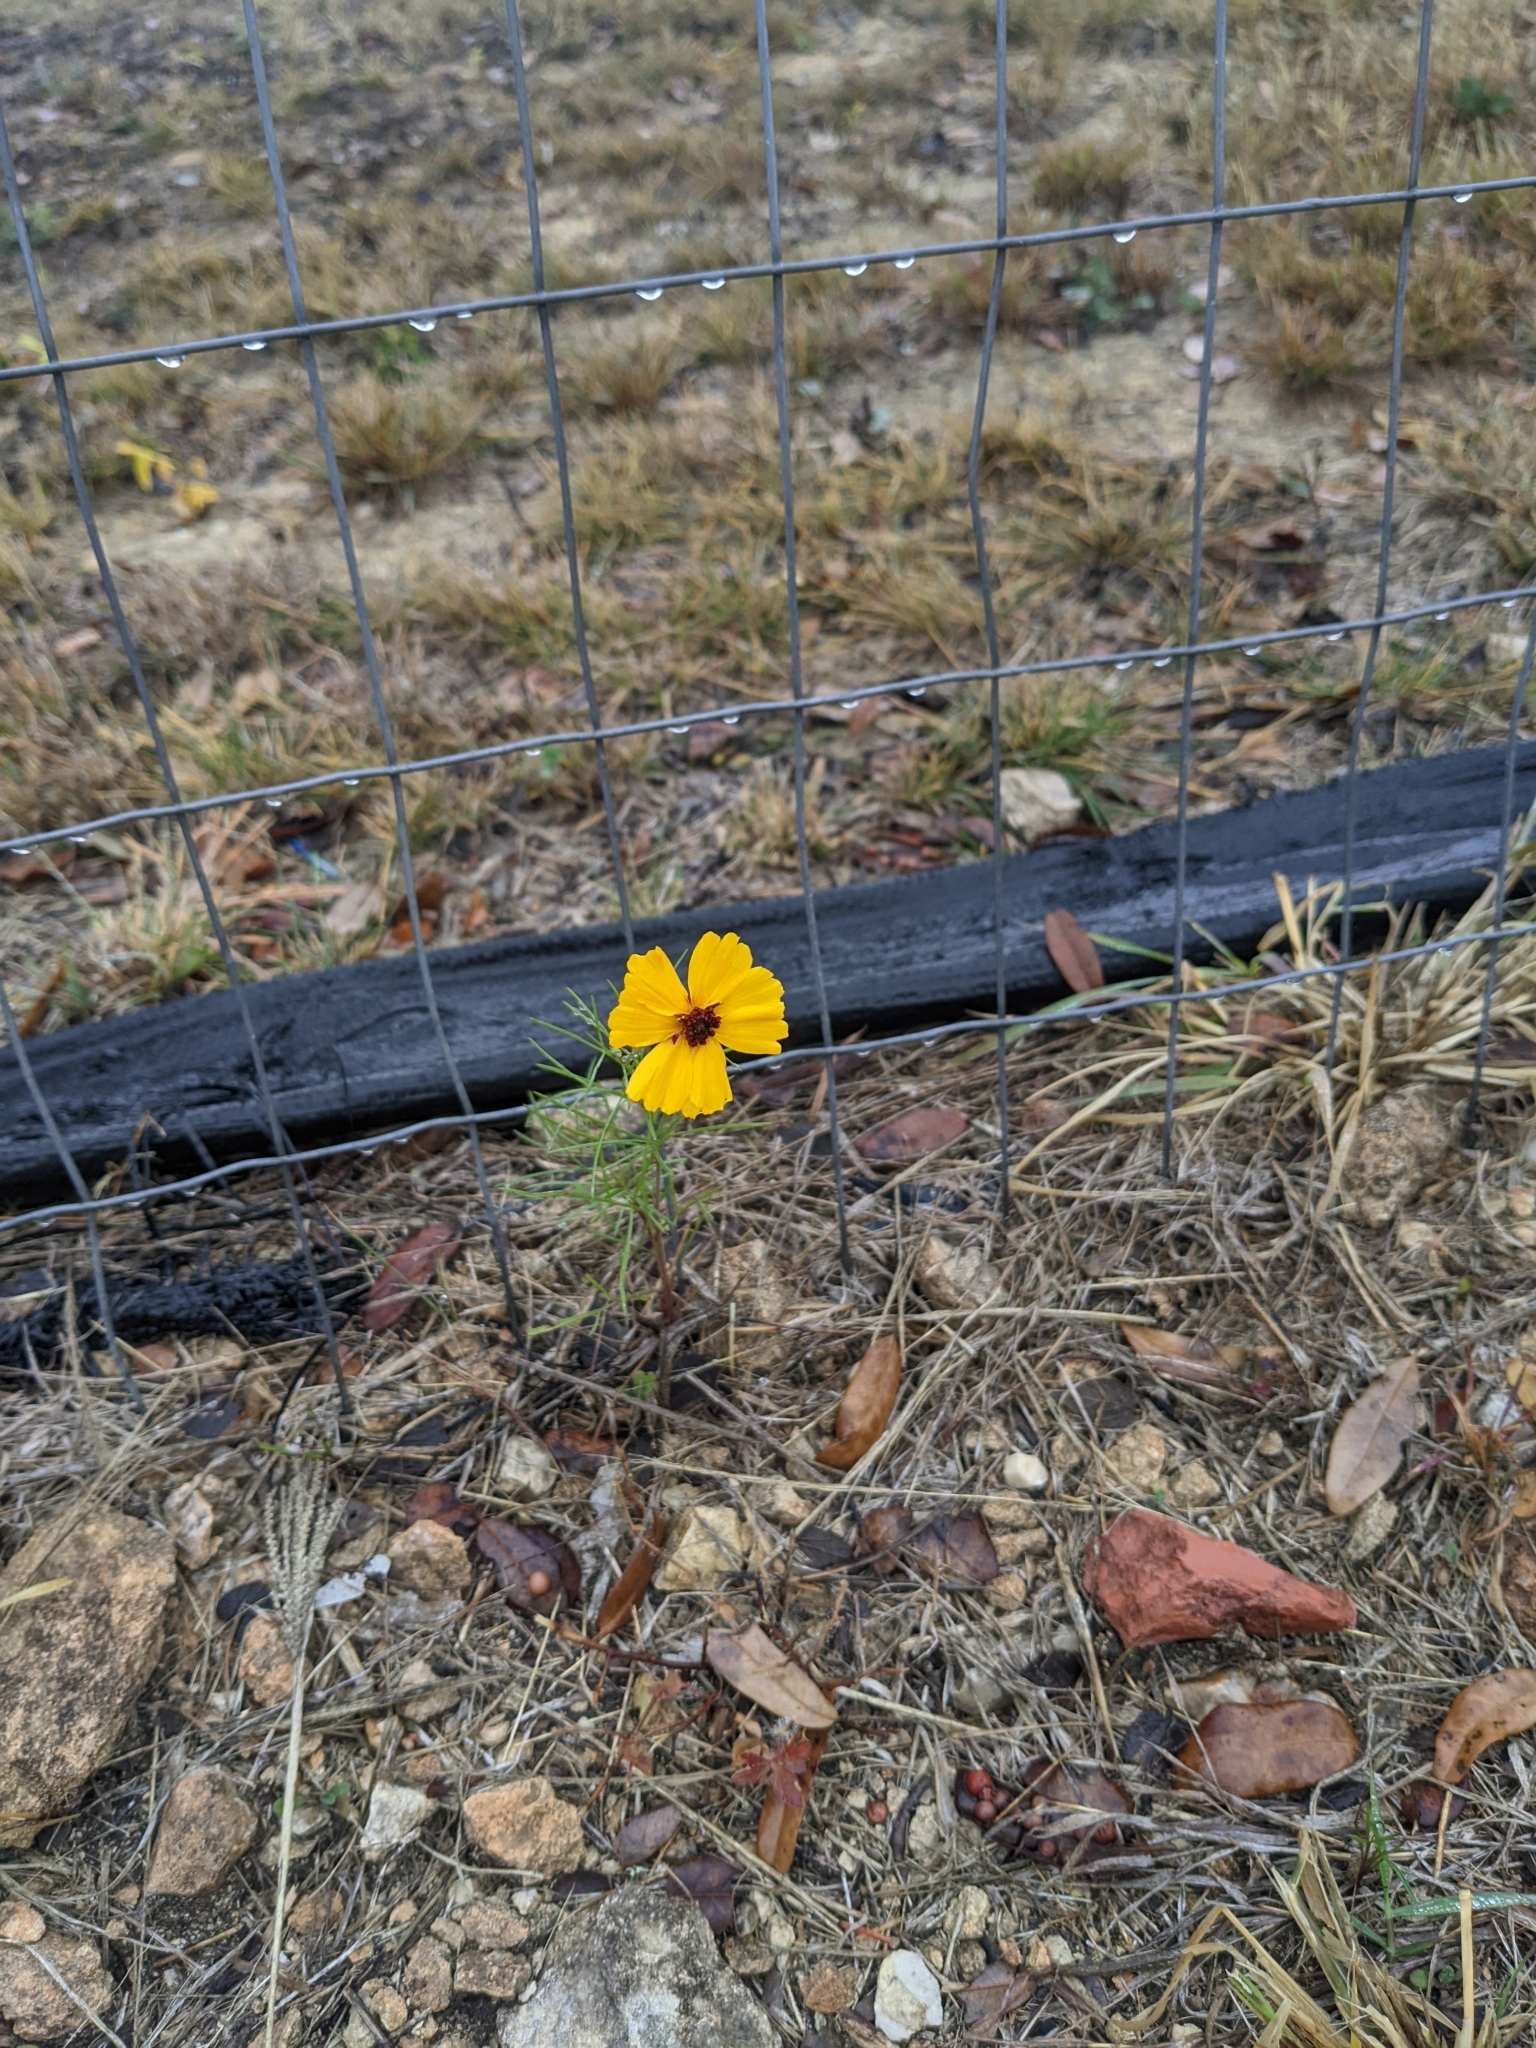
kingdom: Plantae
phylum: Tracheophyta
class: Magnoliopsida
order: Asterales
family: Asteraceae
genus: Thelesperma
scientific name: Thelesperma filifolium
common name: Stiff greenthread
